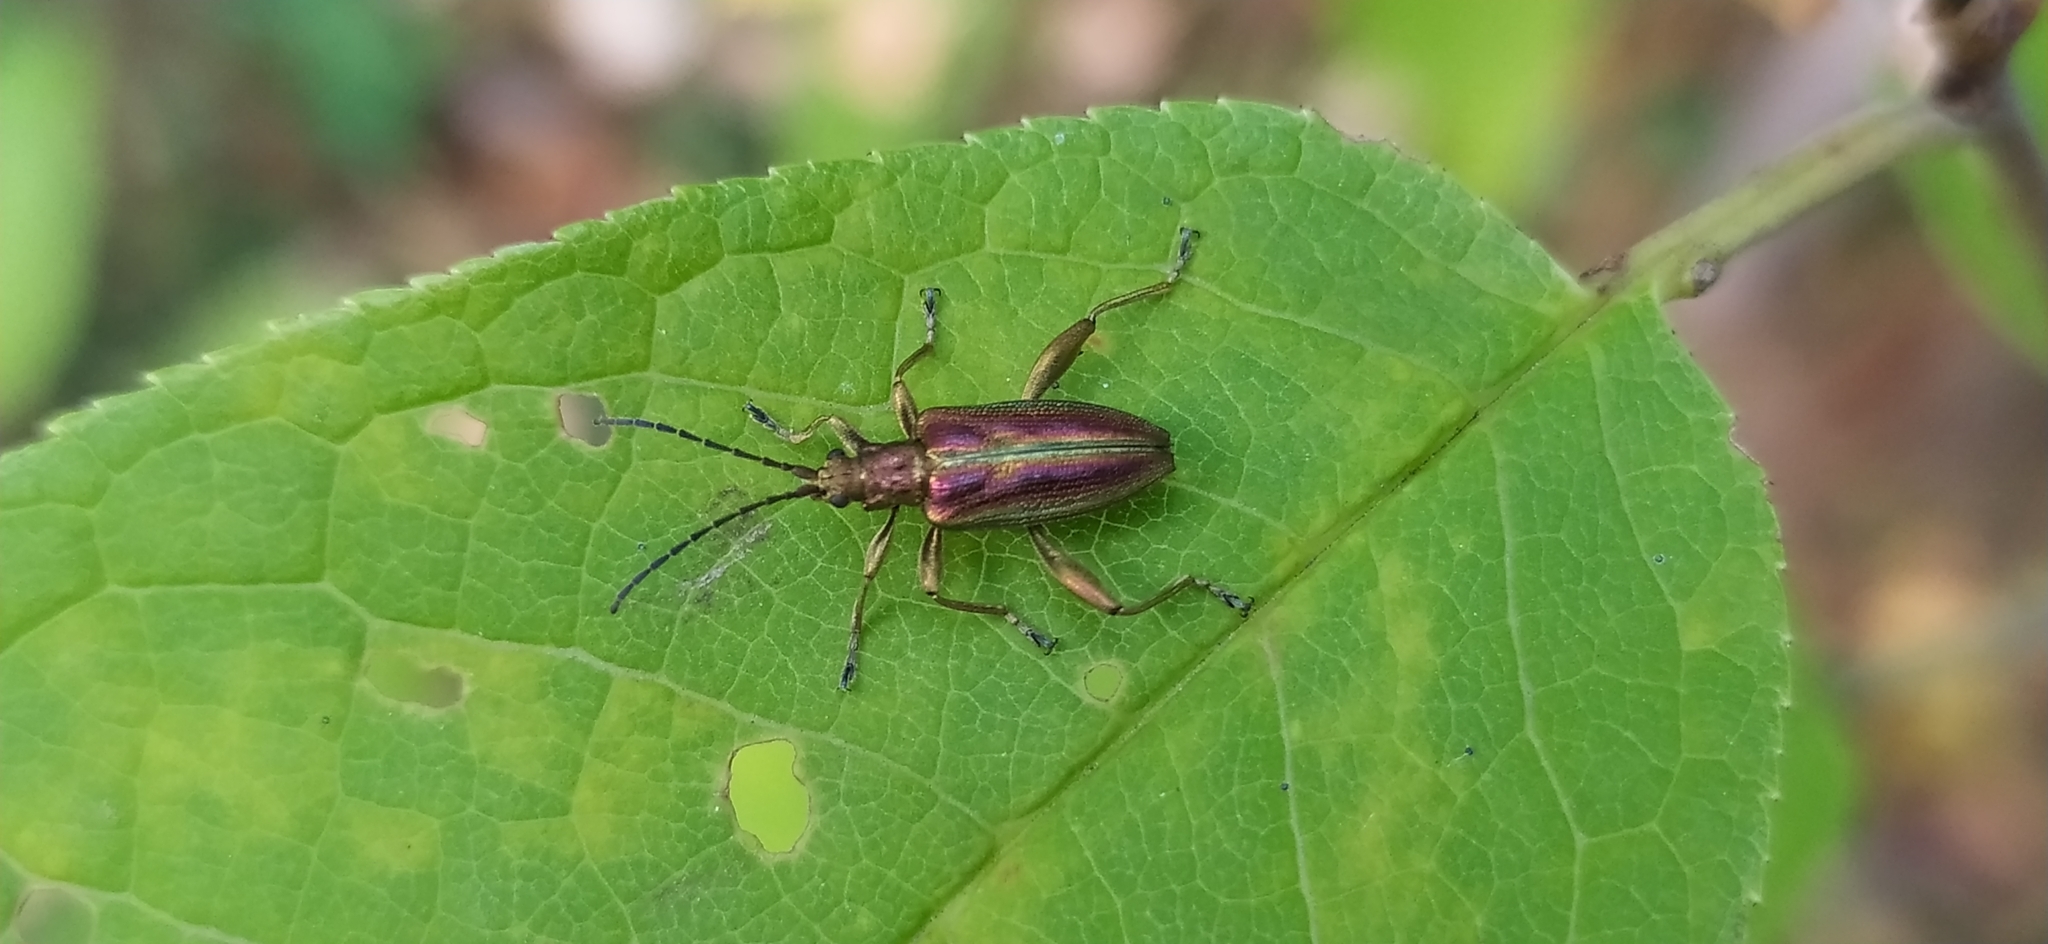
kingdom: Animalia
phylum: Arthropoda
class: Insecta
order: Coleoptera
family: Chrysomelidae
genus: Donacia
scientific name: Donacia aquatica
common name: Zircon reed beetle
